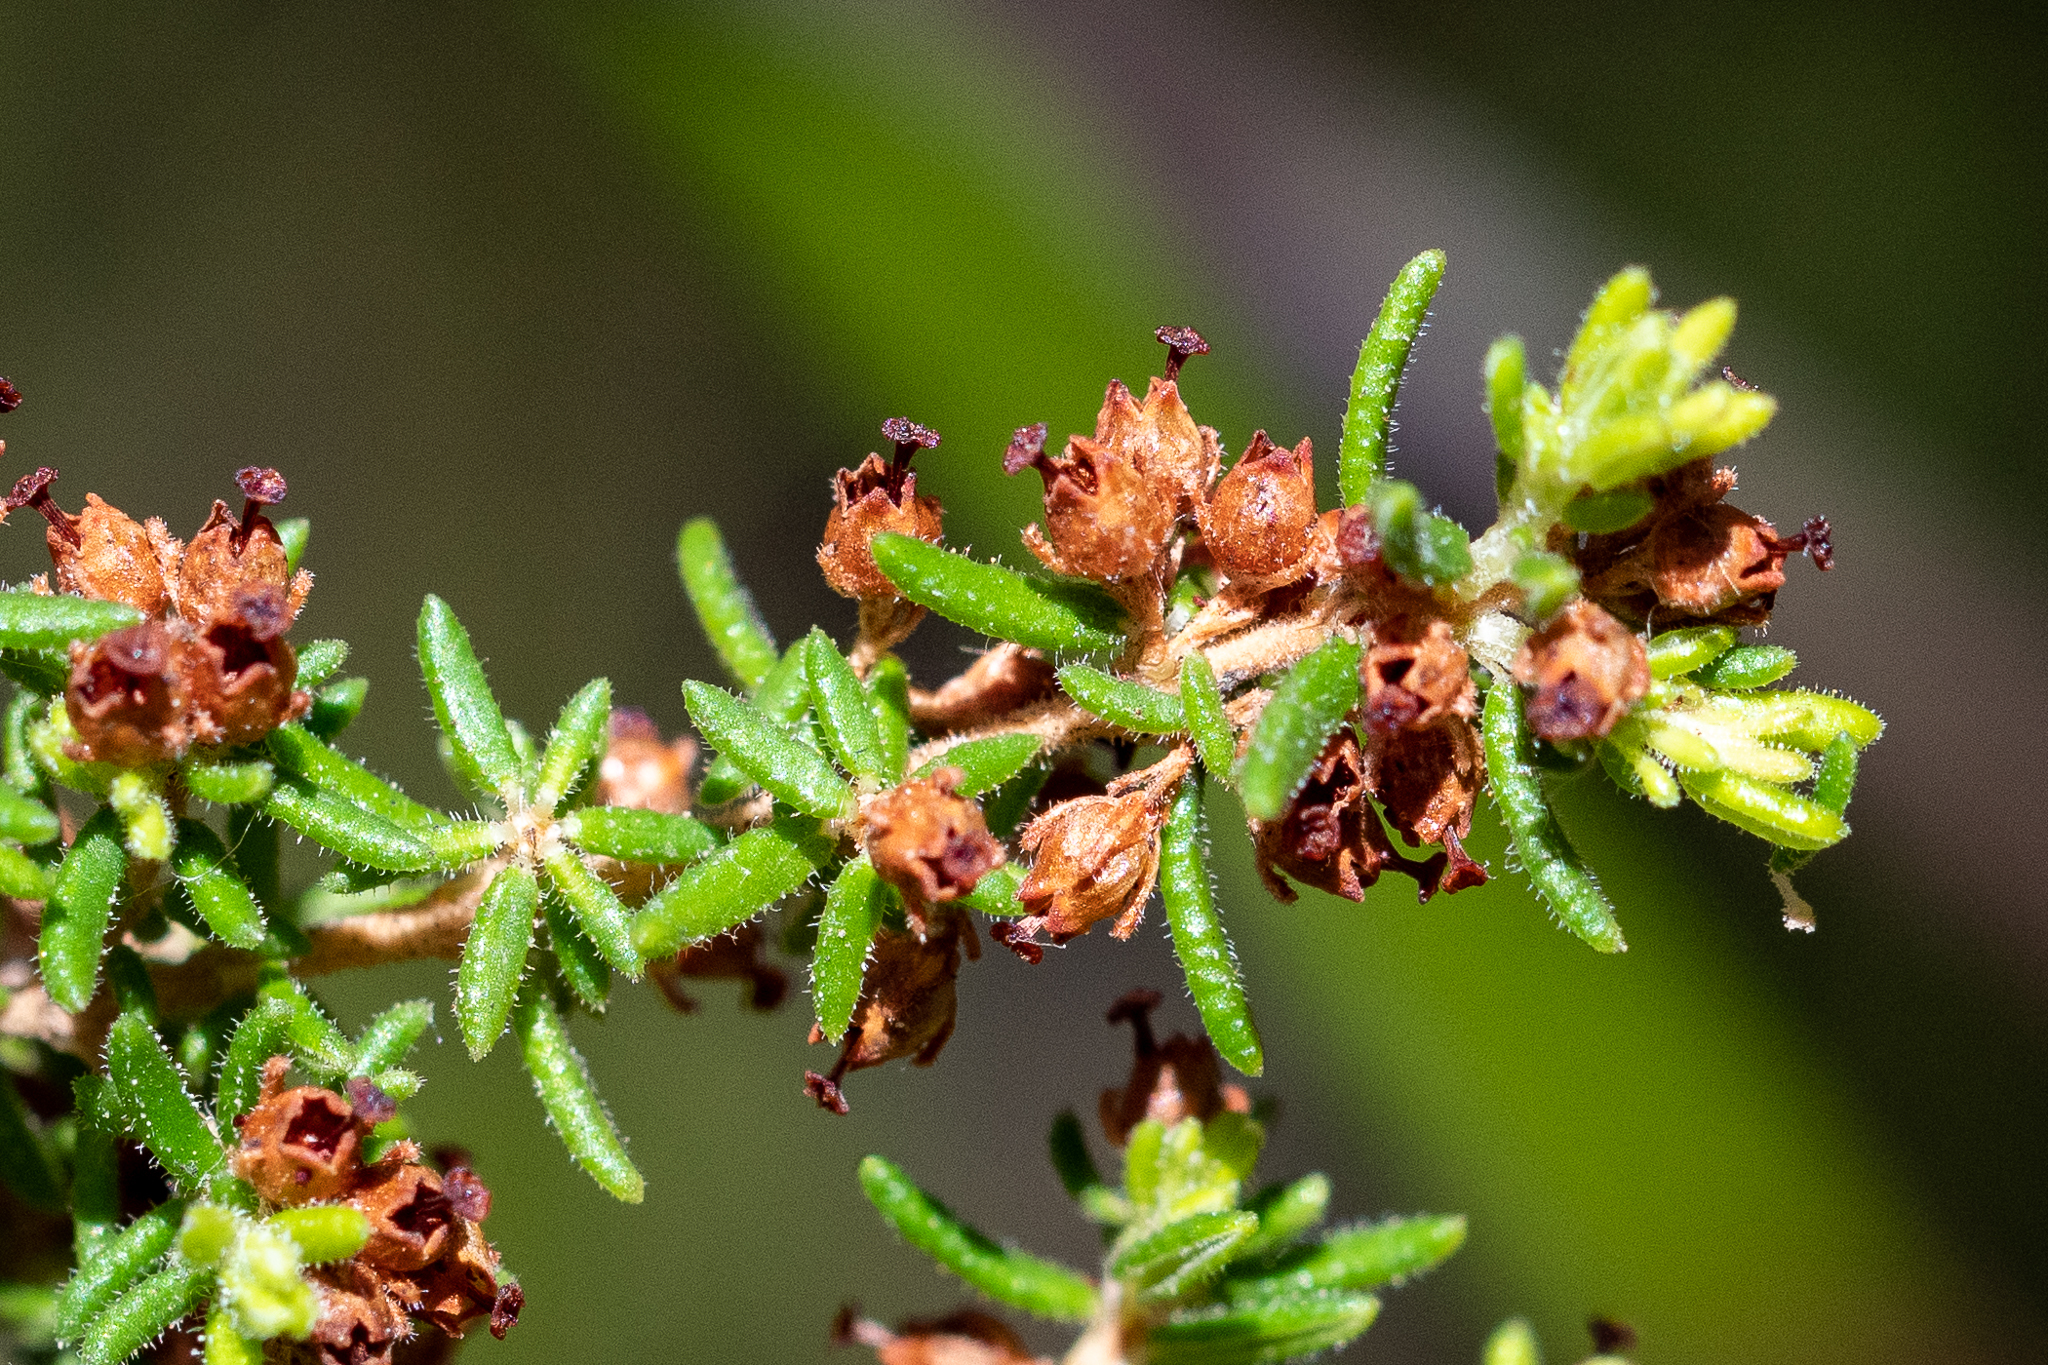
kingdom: Plantae
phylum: Tracheophyta
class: Magnoliopsida
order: Ericales
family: Ericaceae
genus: Erica
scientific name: Erica hispidula
